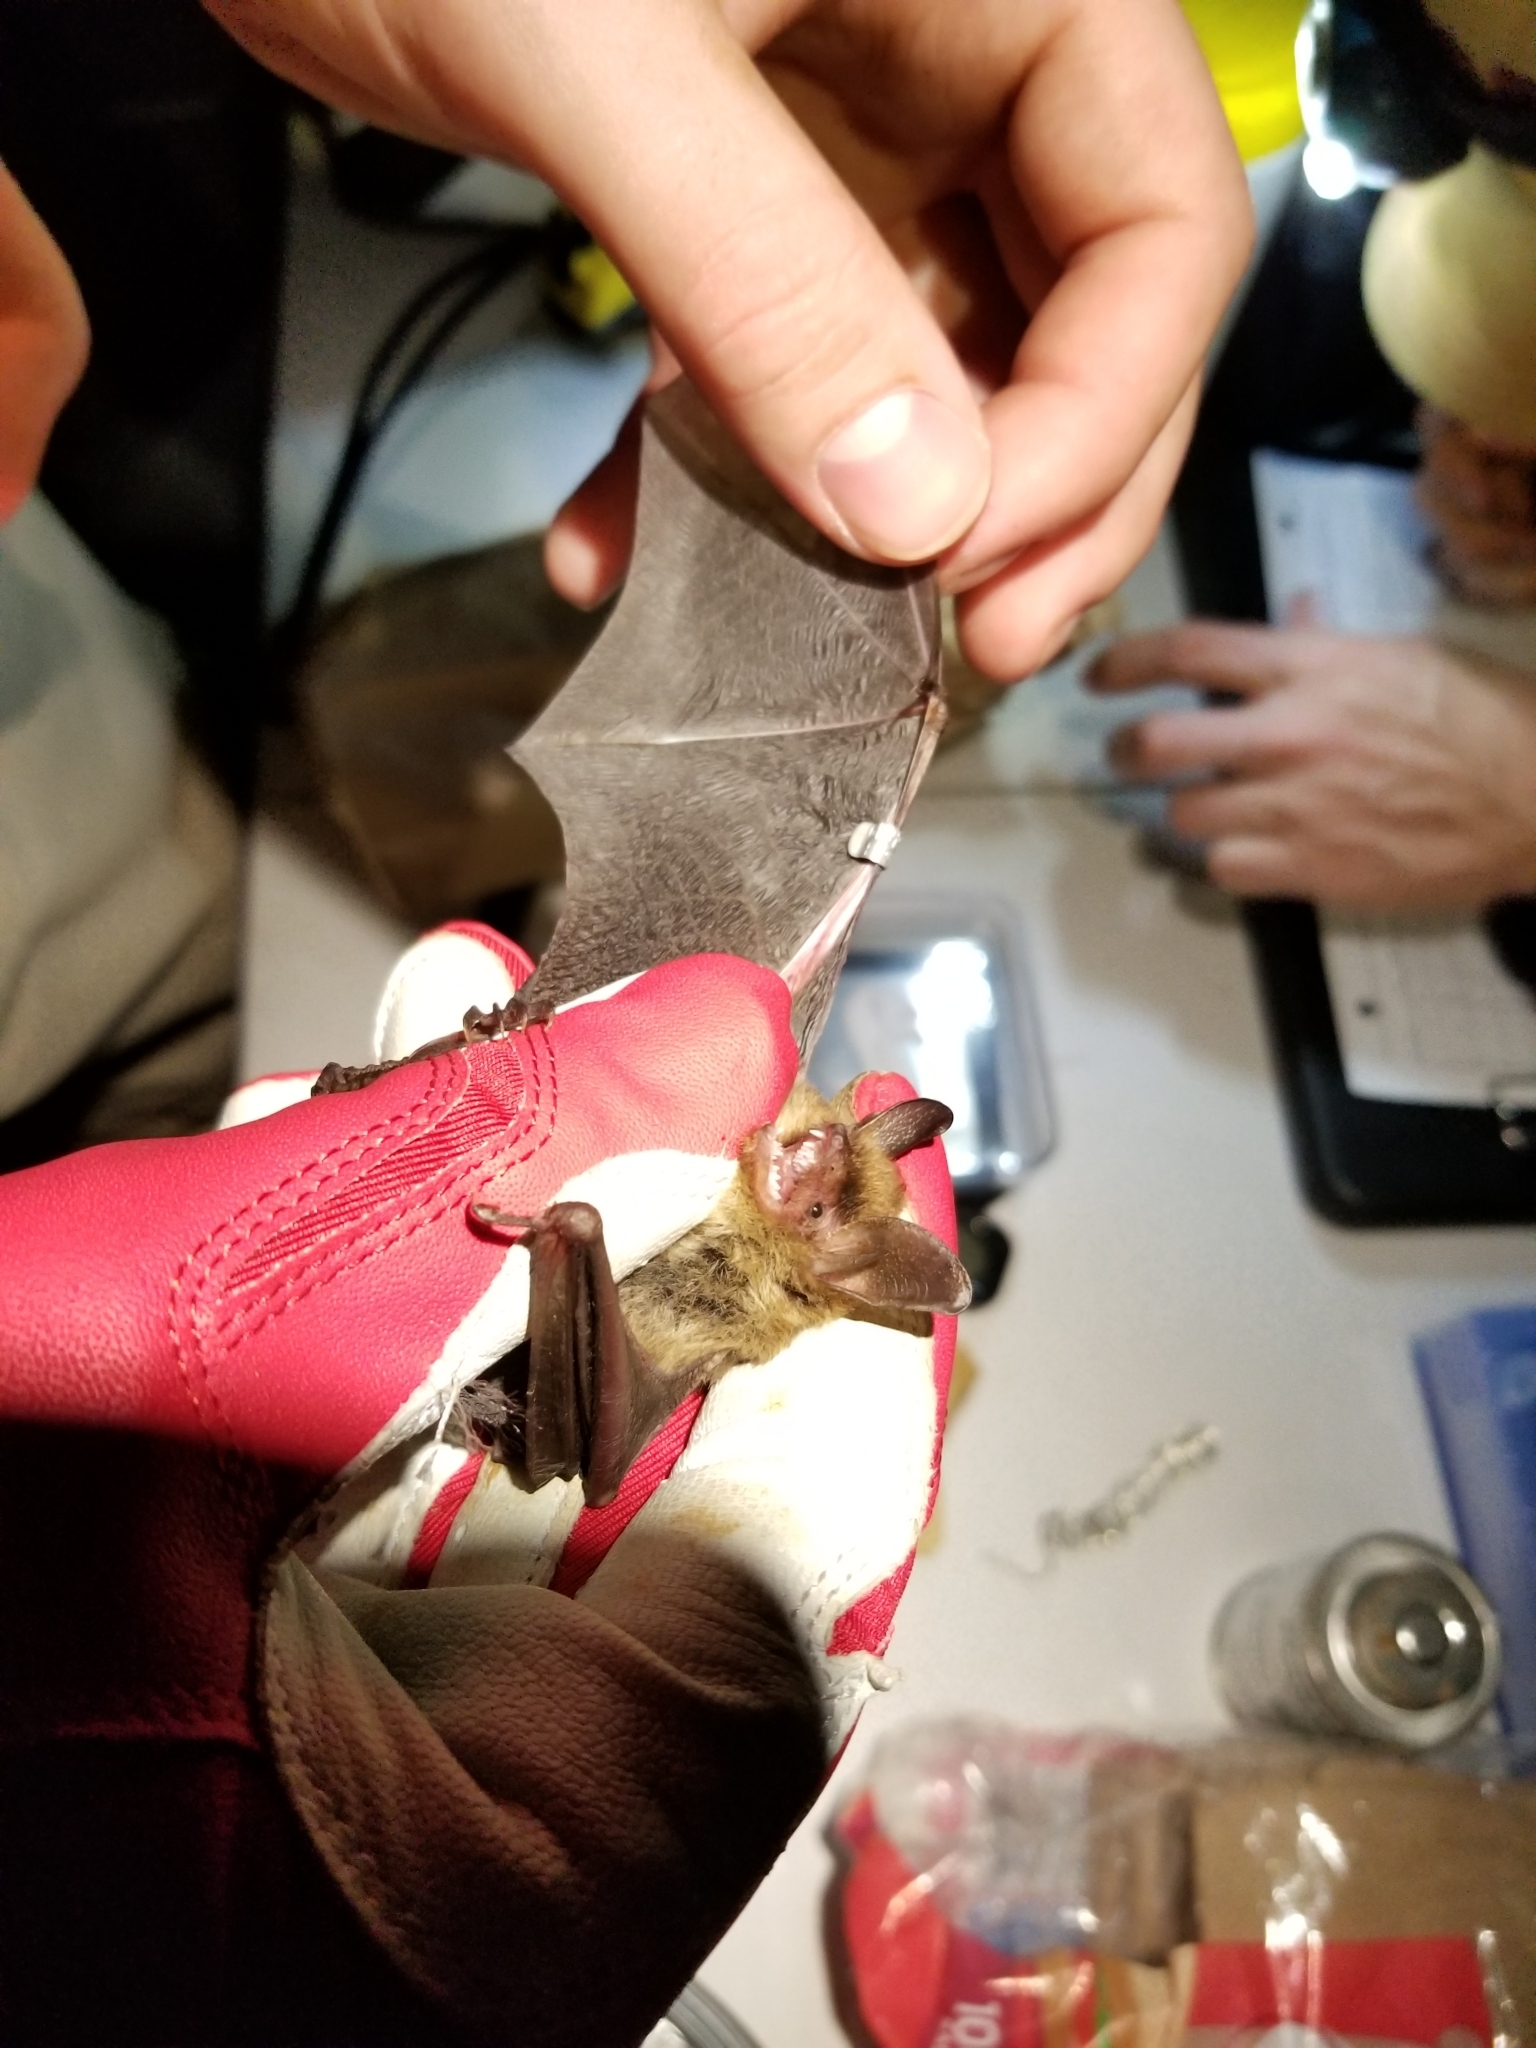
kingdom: Animalia
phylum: Chordata
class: Mammalia
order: Chiroptera
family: Vespertilionidae
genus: Myotis
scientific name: Myotis septentrionalis
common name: Northern myotis
